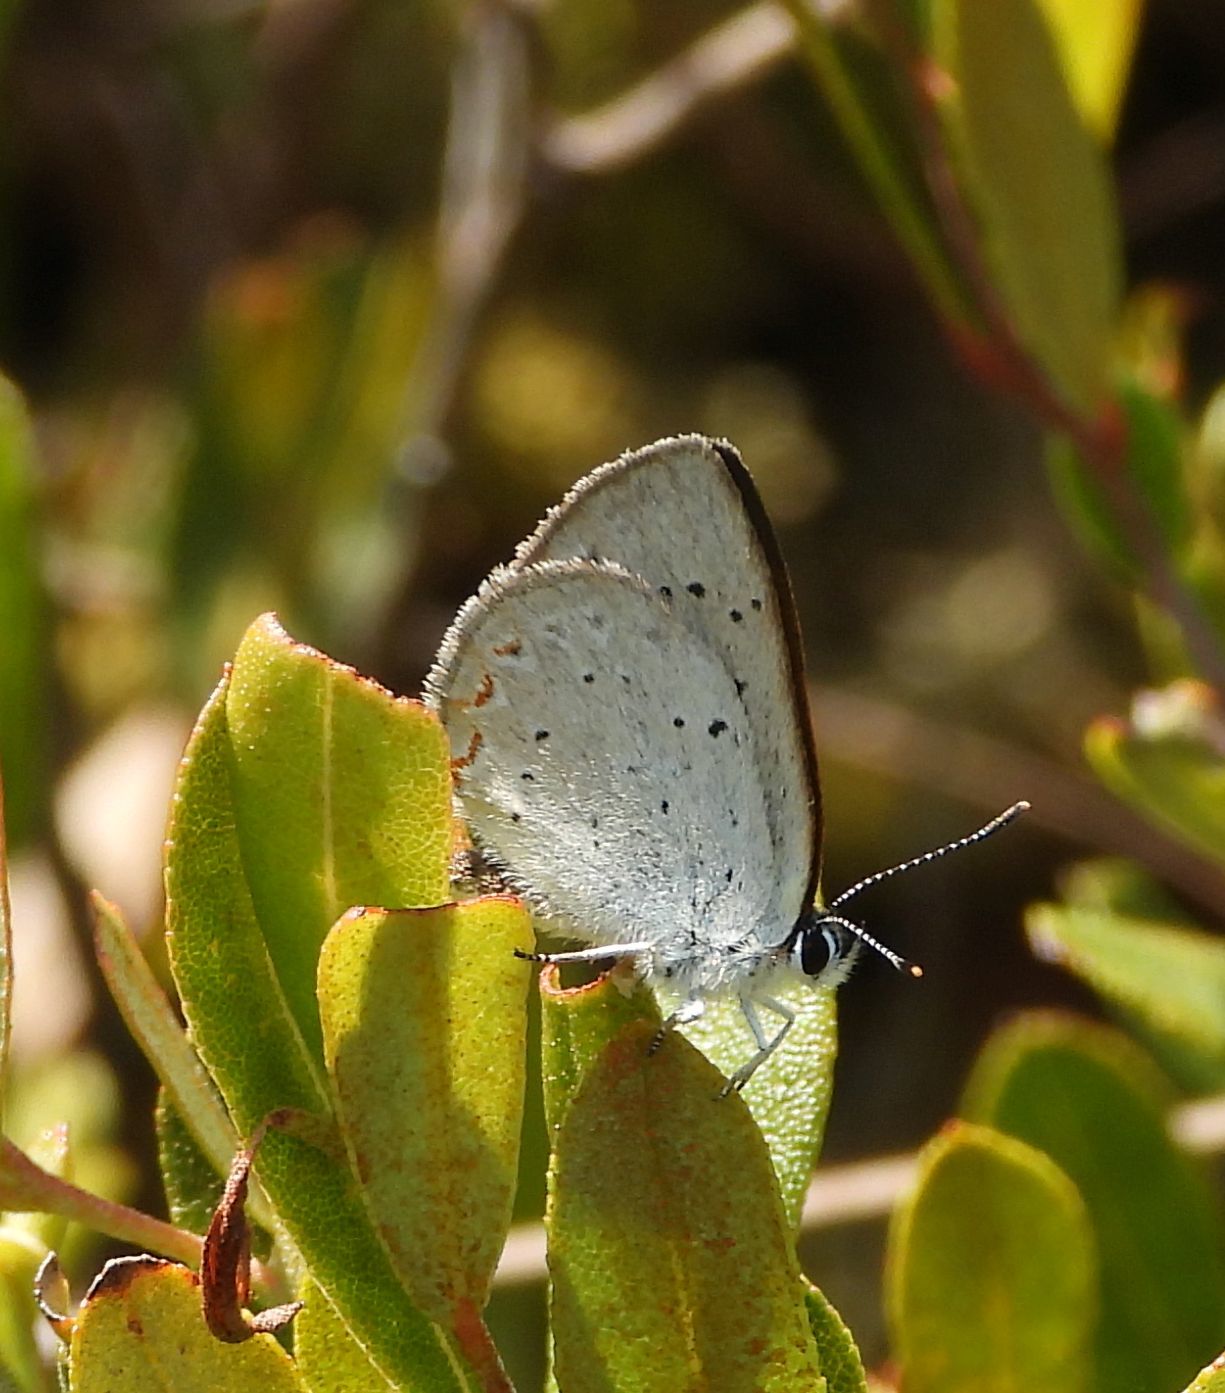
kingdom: Animalia
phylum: Arthropoda
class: Insecta
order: Lepidoptera
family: Lycaenidae
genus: Tharsalea
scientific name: Tharsalea epixanthe
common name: Bog copper
